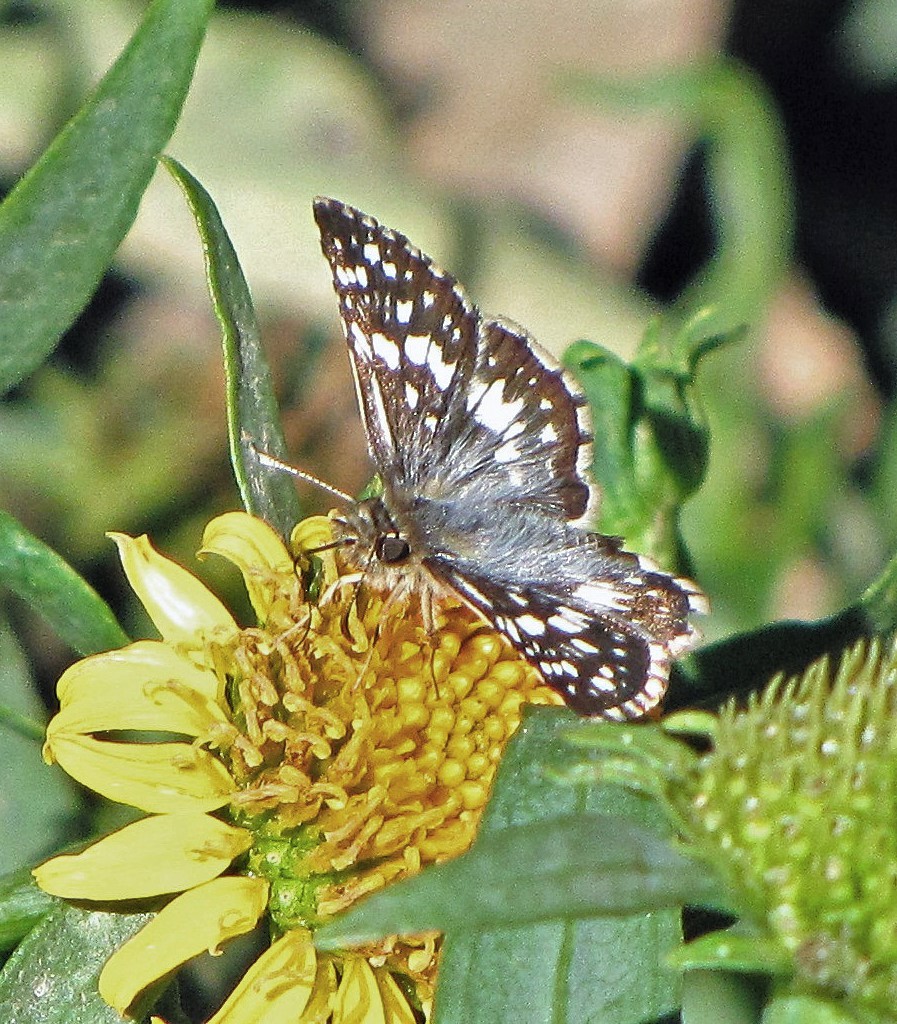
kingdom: Animalia
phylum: Arthropoda
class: Insecta
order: Lepidoptera
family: Hesperiidae
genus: Burnsius
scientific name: Burnsius orcynoides
